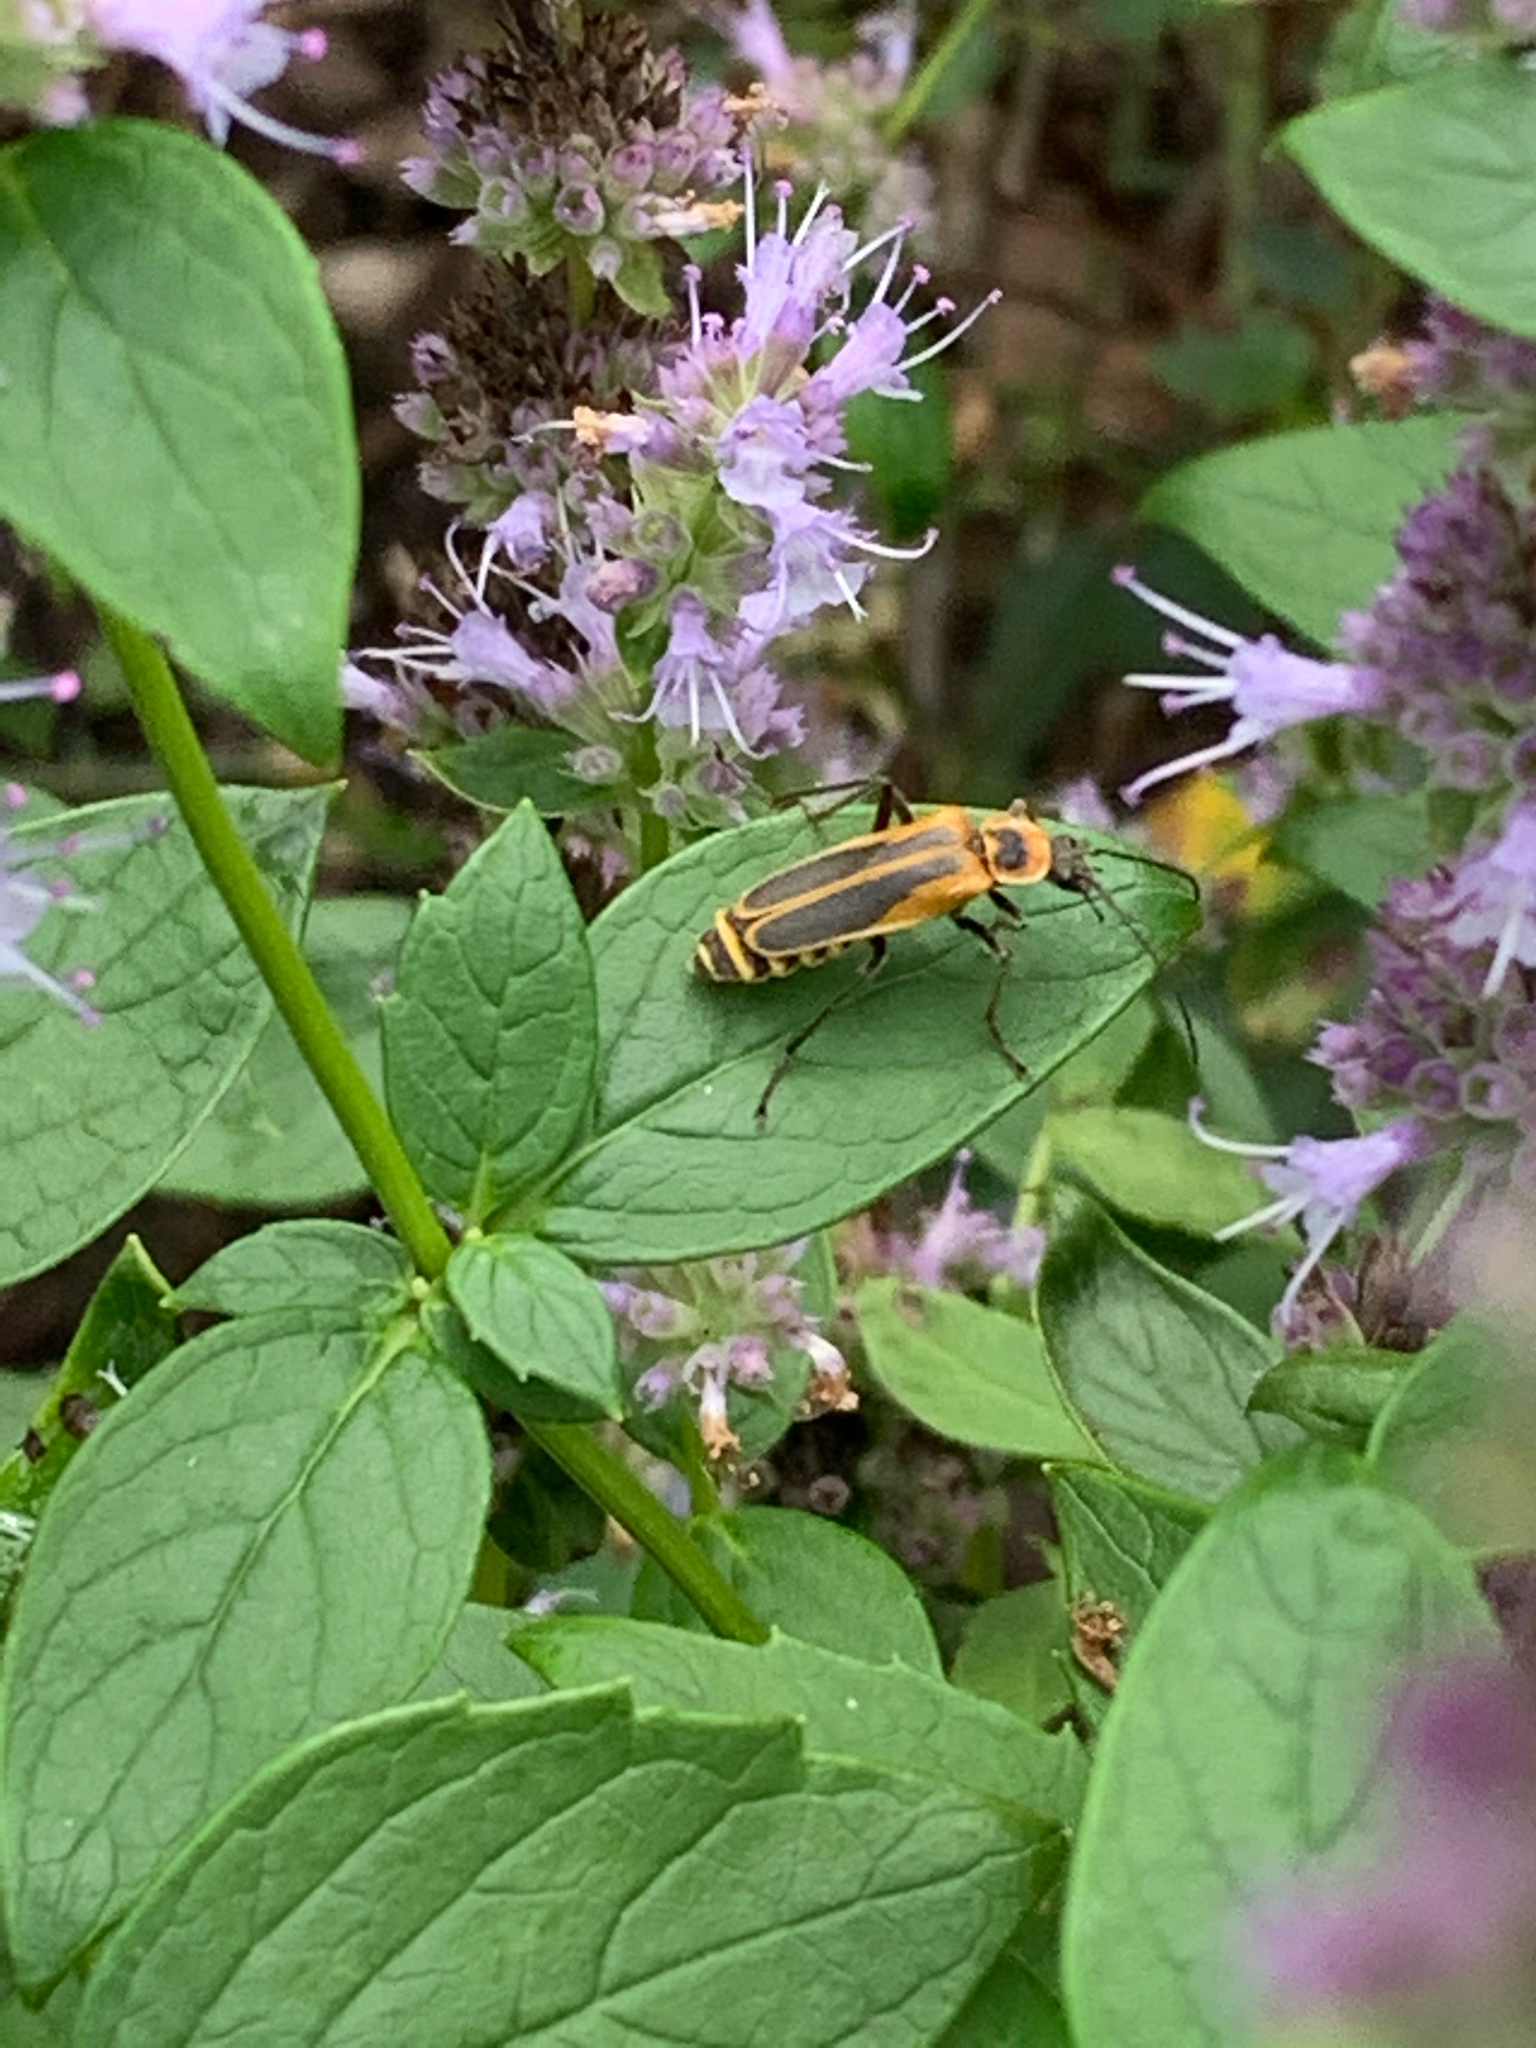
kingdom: Animalia
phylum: Arthropoda
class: Insecta
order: Coleoptera
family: Cantharidae
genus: Chauliognathus
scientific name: Chauliognathus pensylvanicus
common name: Goldenrod soldier beetle
